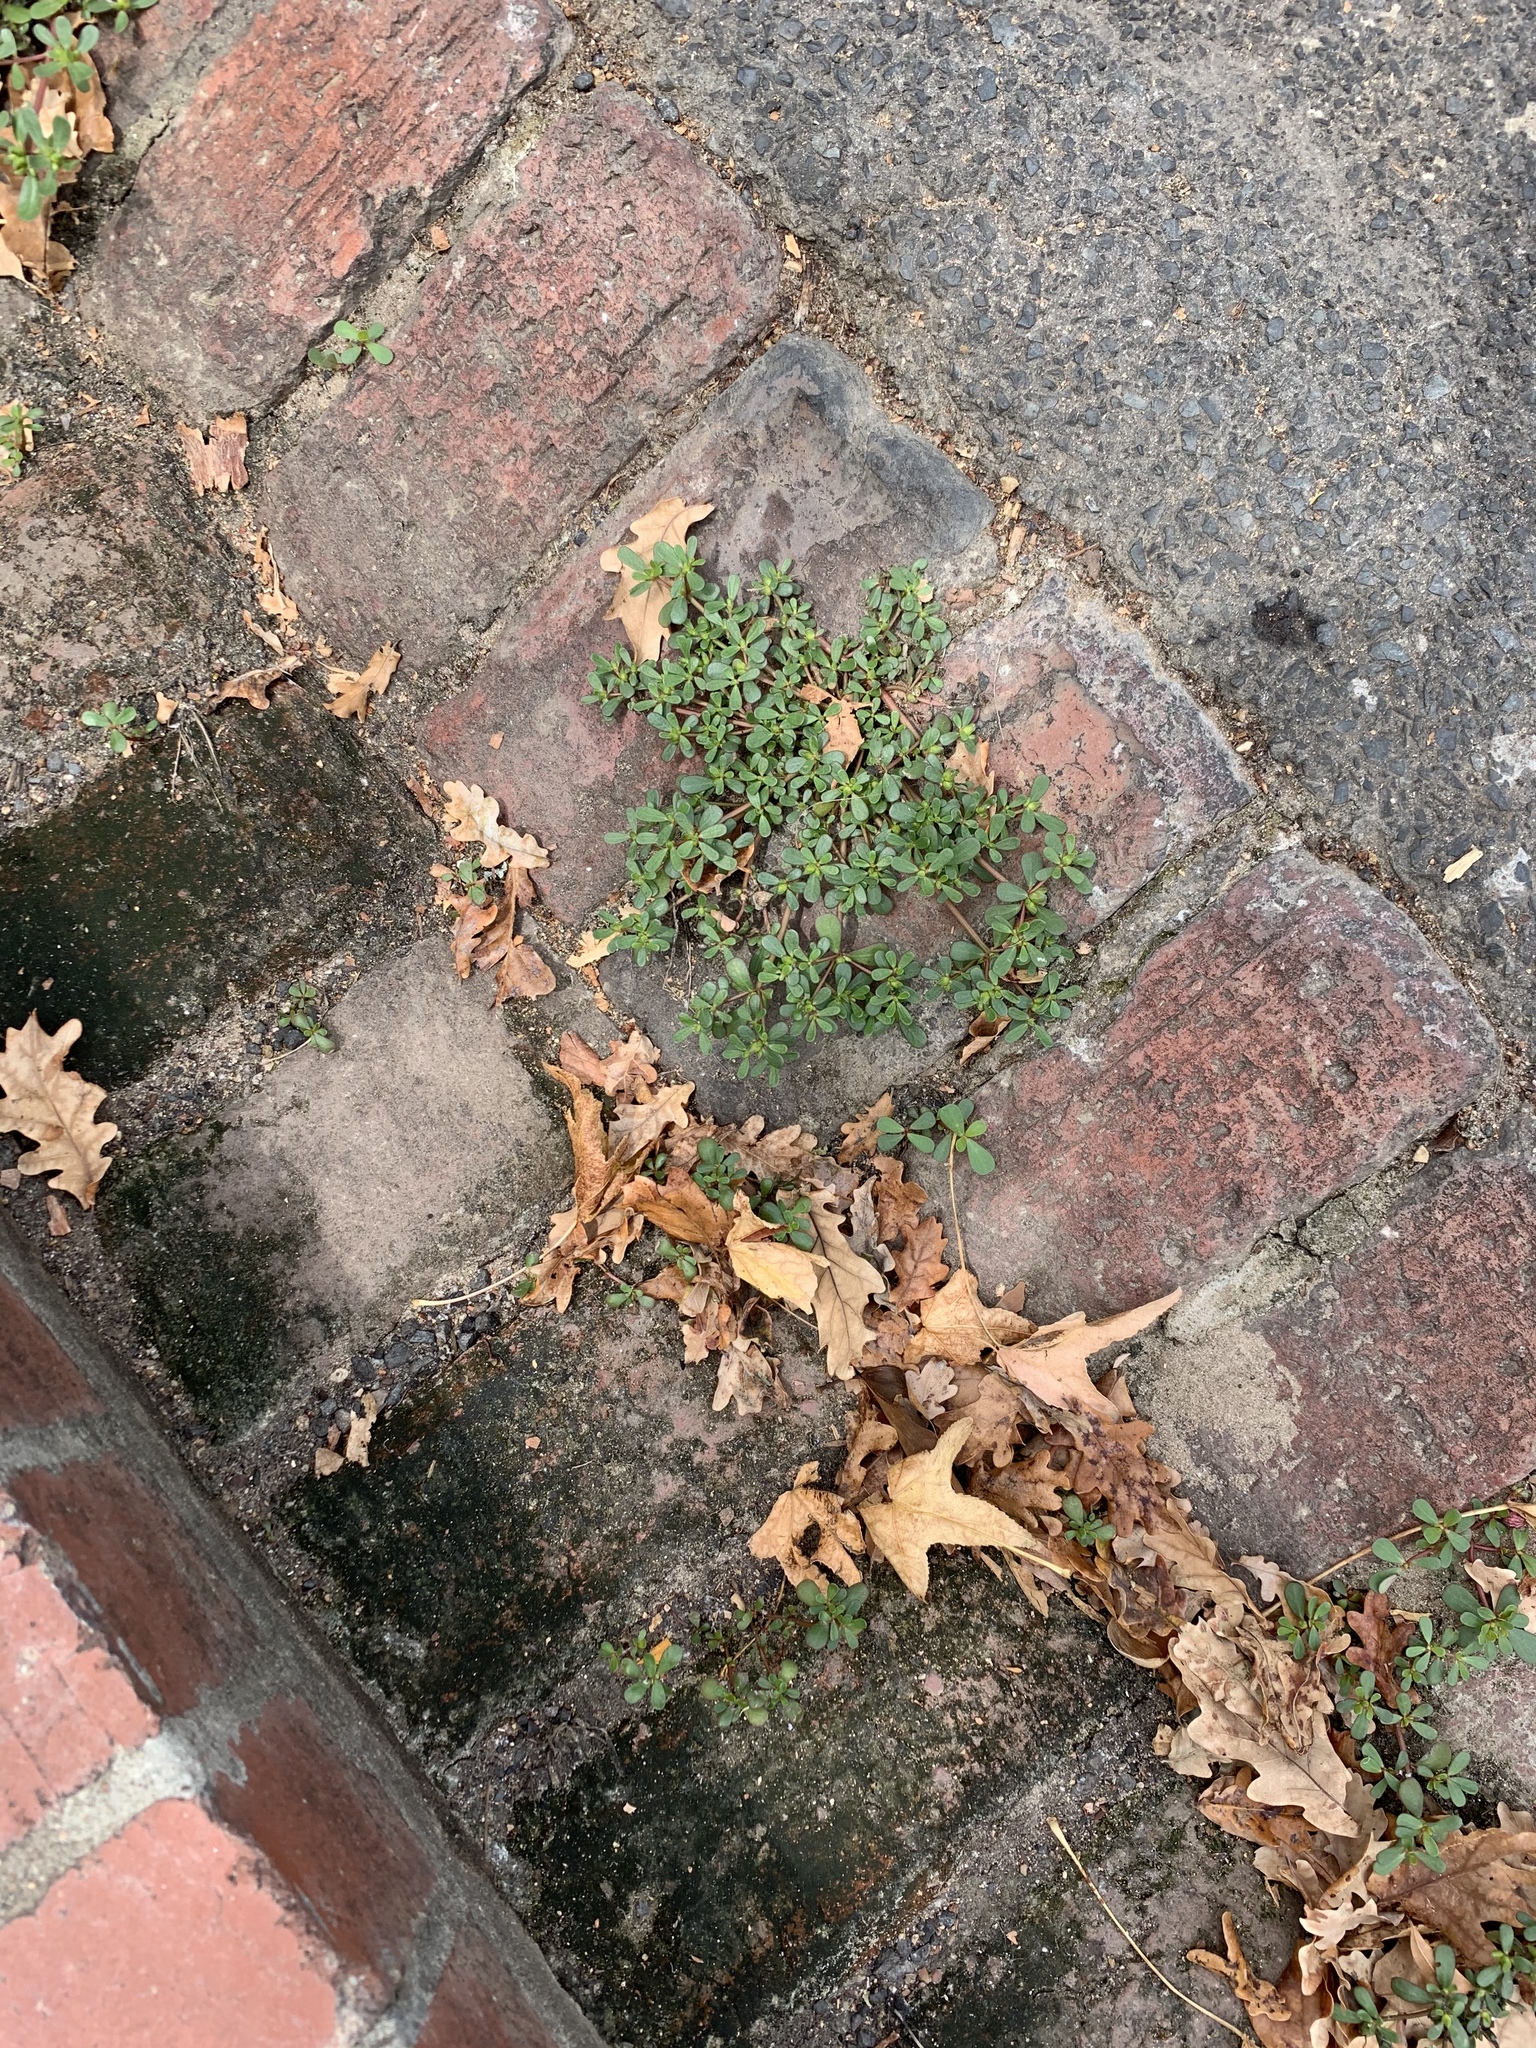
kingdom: Plantae
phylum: Tracheophyta
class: Magnoliopsida
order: Caryophyllales
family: Portulacaceae
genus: Portulaca
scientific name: Portulaca oleracea
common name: Common purslane
